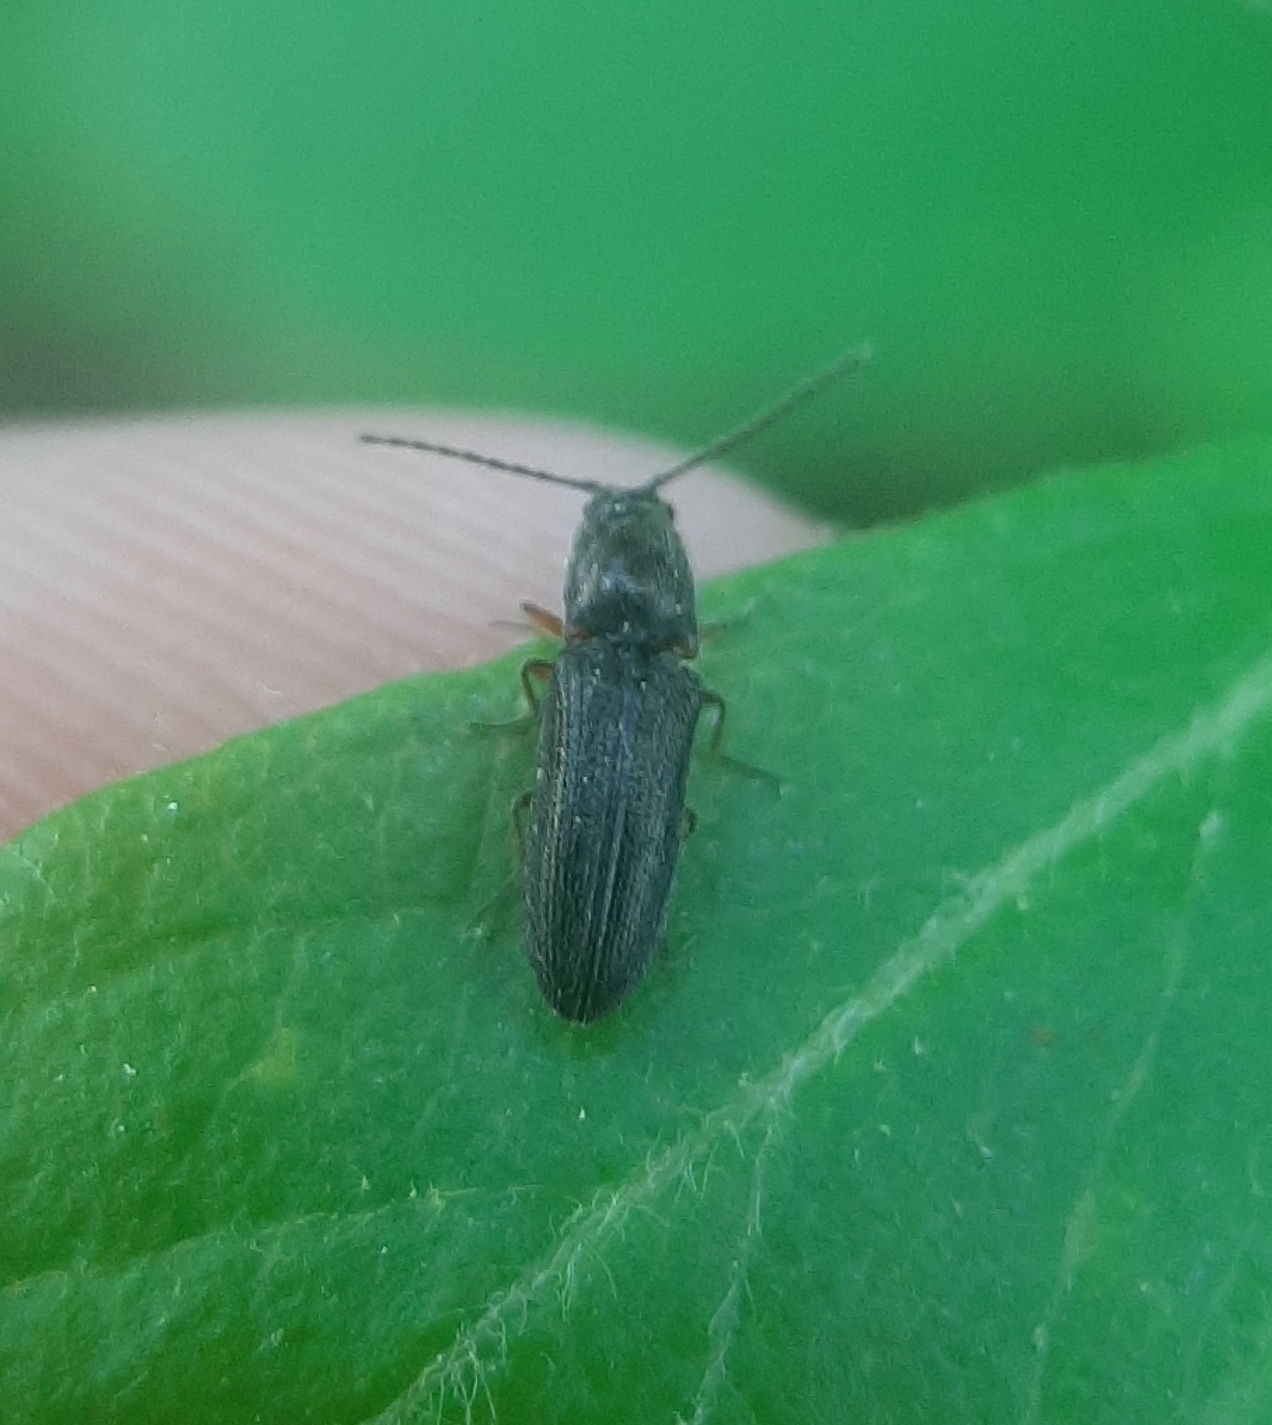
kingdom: Animalia
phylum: Arthropoda
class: Insecta
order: Coleoptera
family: Elateridae
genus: Limonius
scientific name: Limonius basilaris
